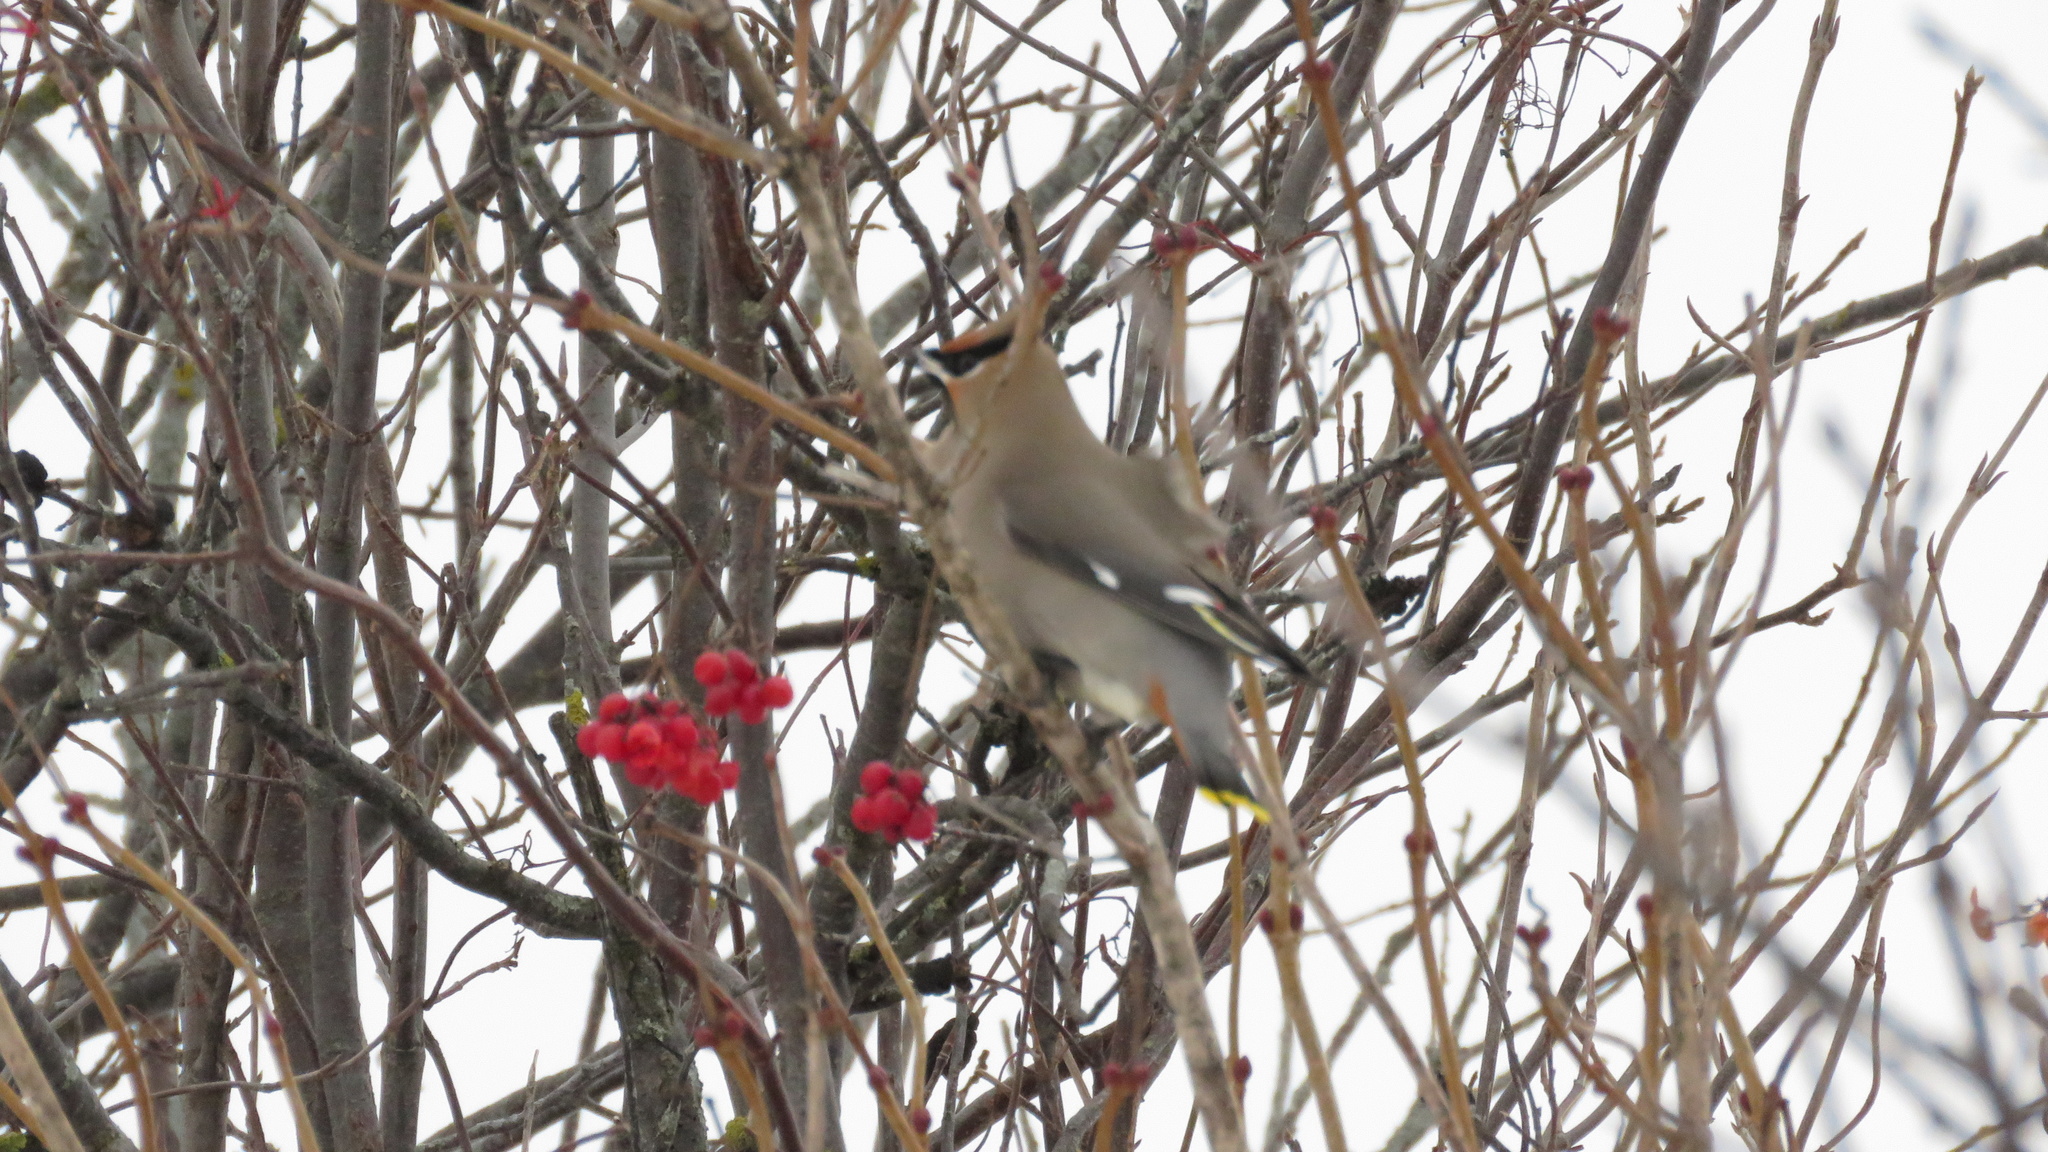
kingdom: Animalia
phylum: Chordata
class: Aves
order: Passeriformes
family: Bombycillidae
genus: Bombycilla
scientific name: Bombycilla garrulus
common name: Bohemian waxwing
